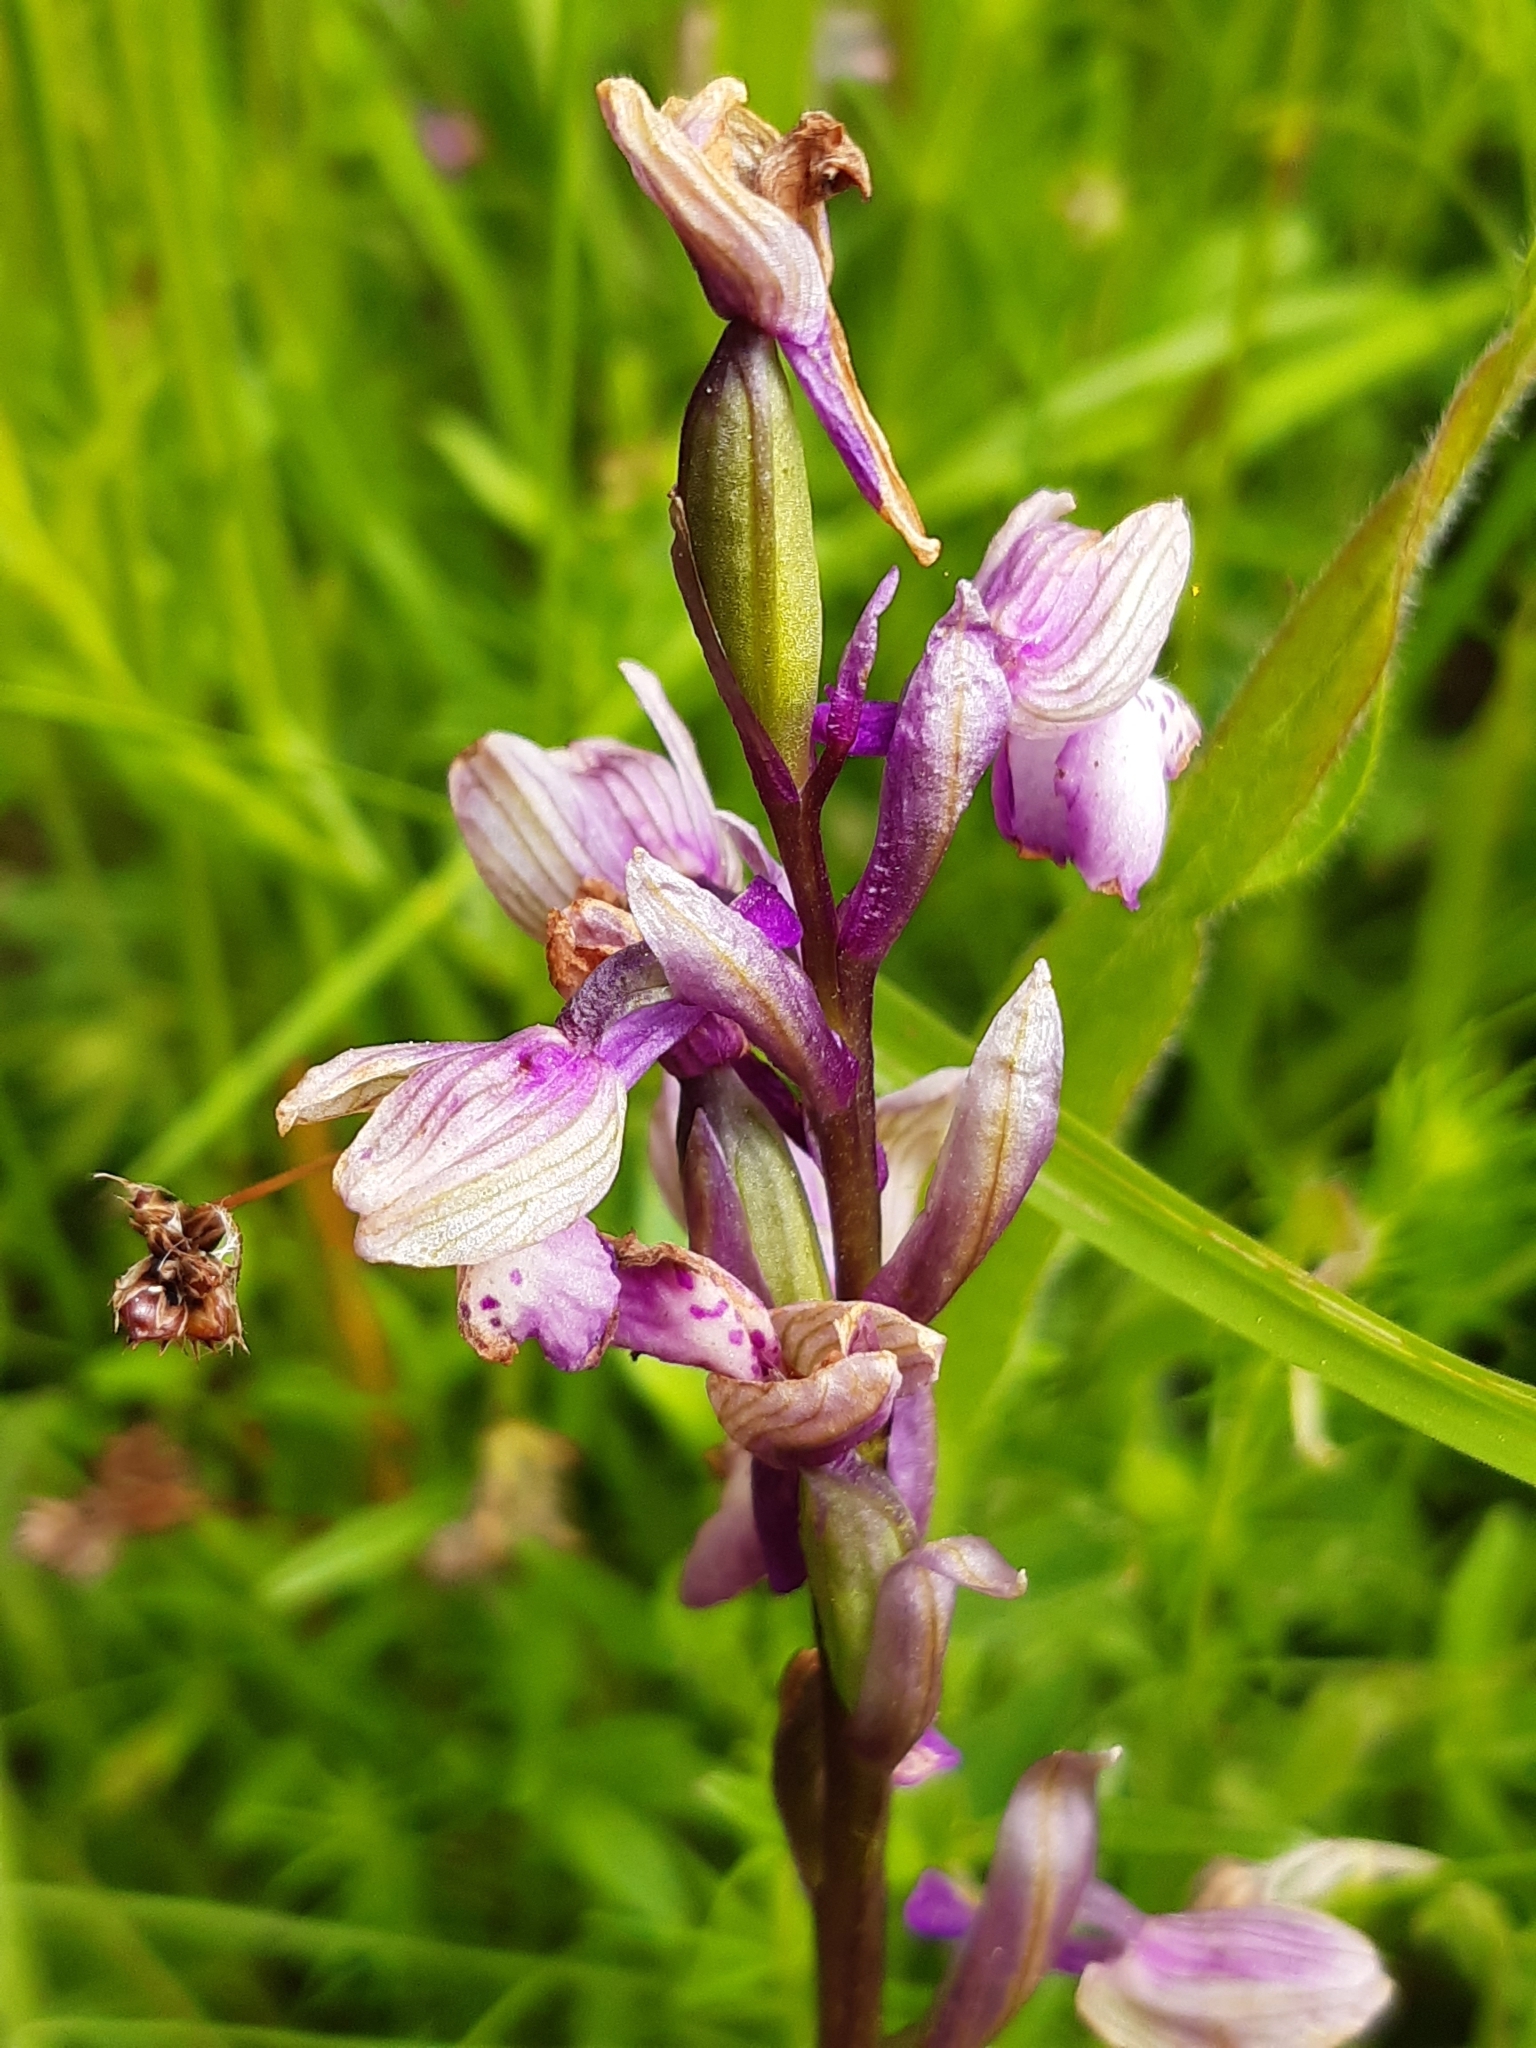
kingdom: Plantae
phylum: Tracheophyta
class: Liliopsida
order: Asparagales
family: Orchidaceae
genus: Anacamptis
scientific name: Anacamptis morio
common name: Green-winged orchid
